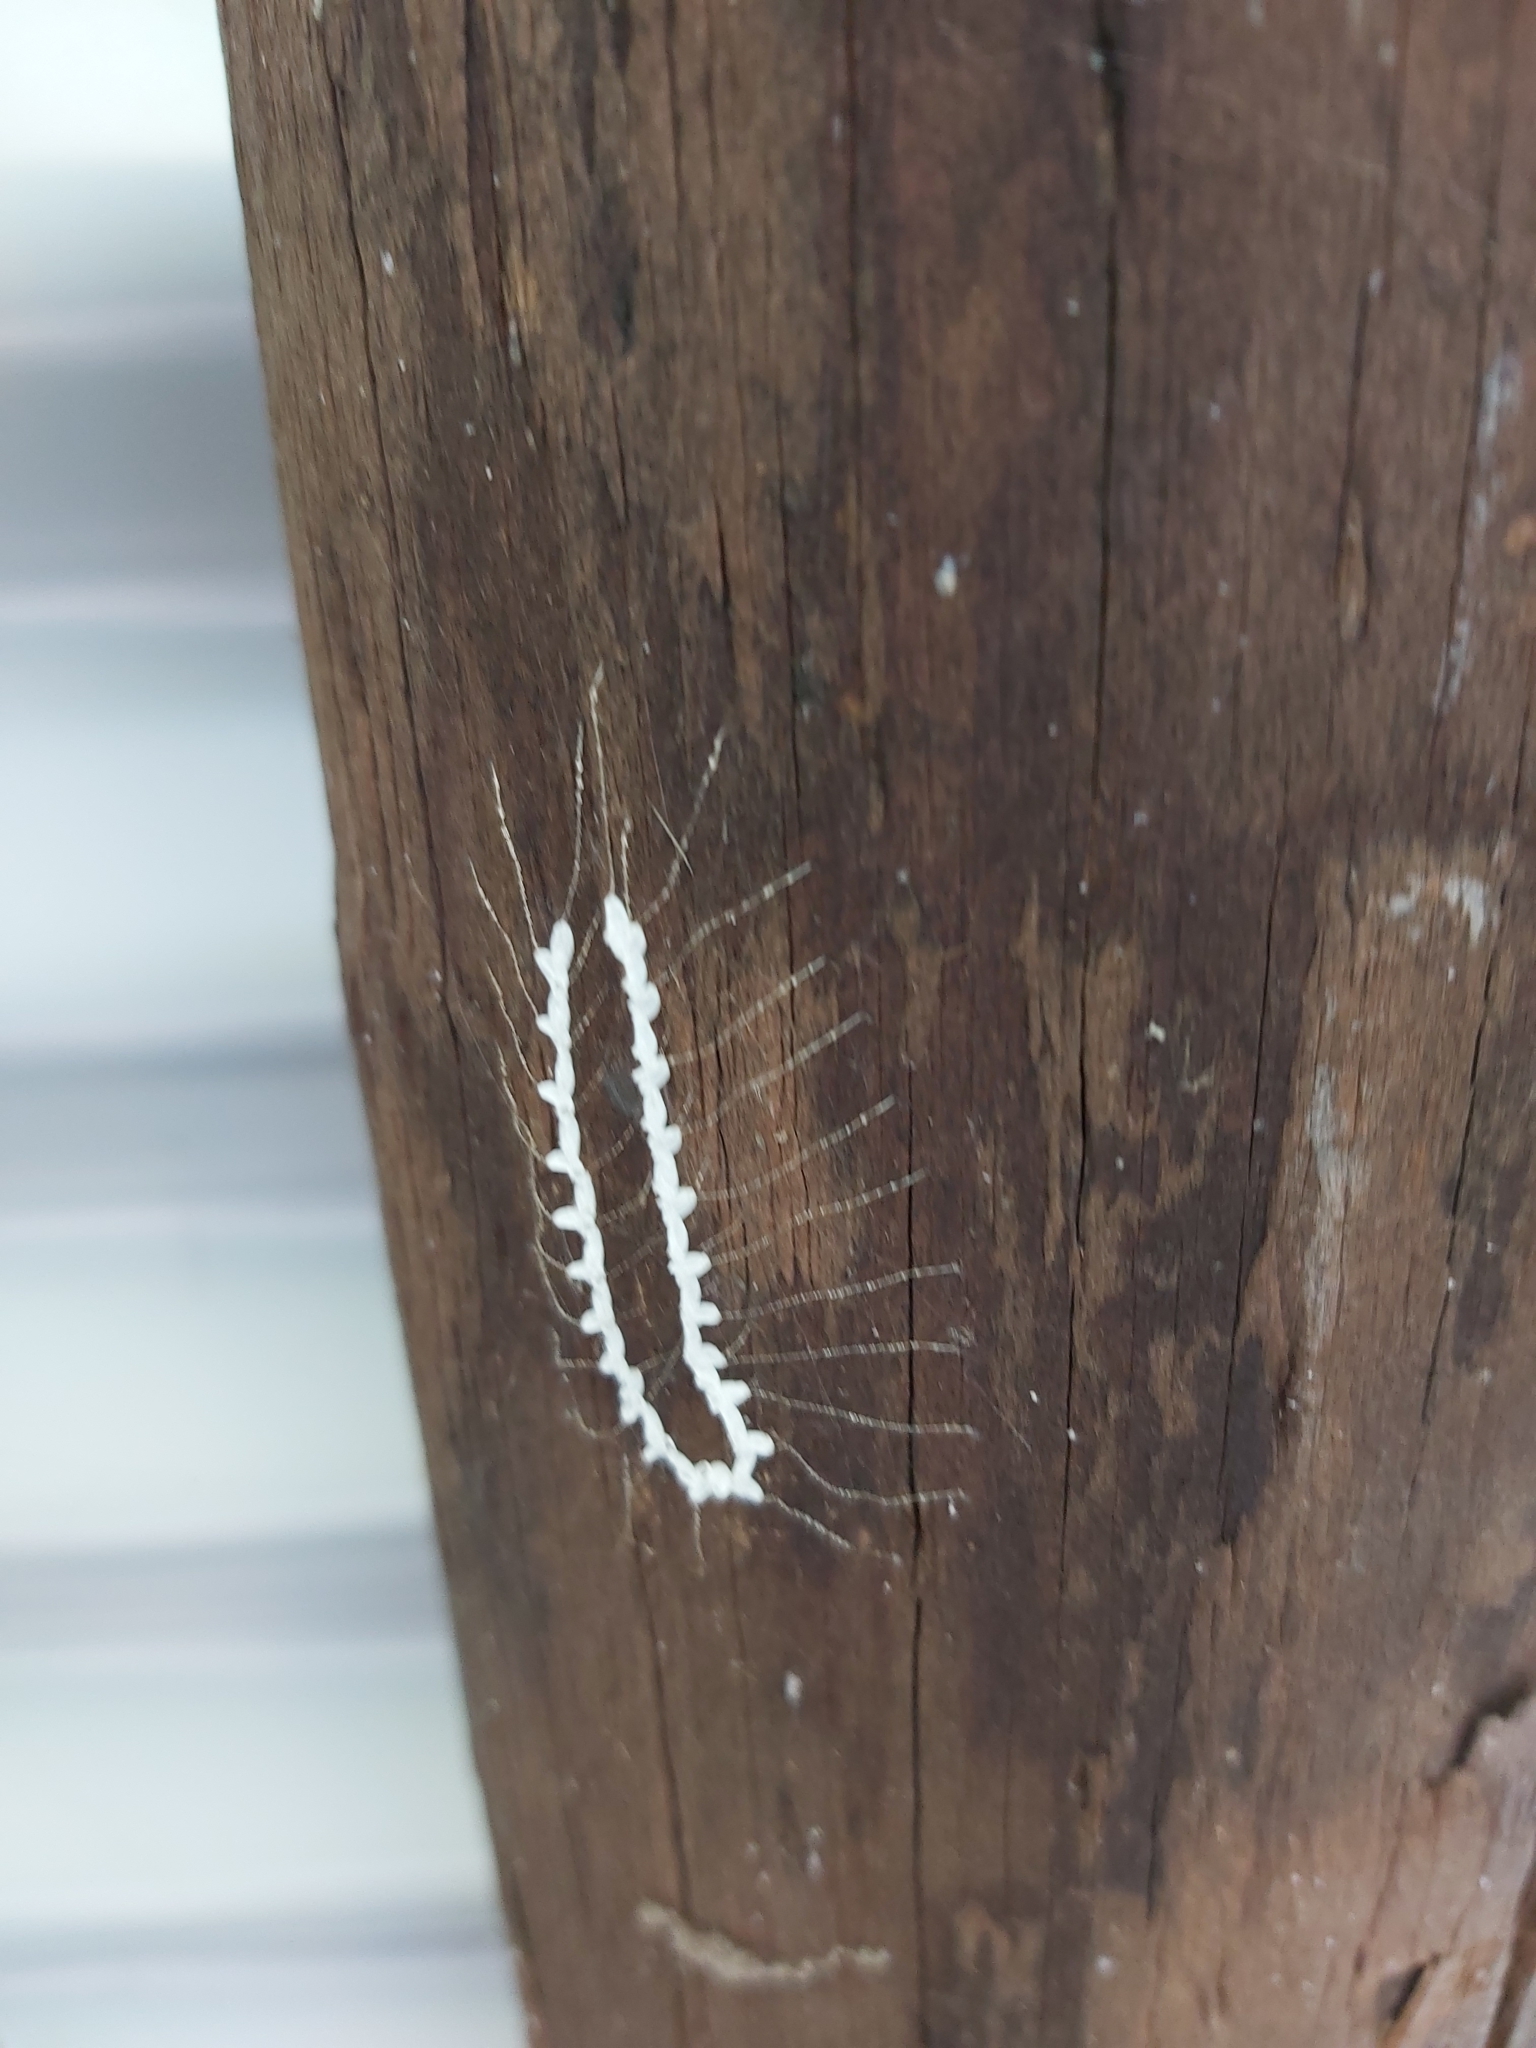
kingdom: Animalia
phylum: Arthropoda
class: Insecta
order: Neuroptera
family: Nymphidae
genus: Nymphes
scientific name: Nymphes myrmeleonoides
